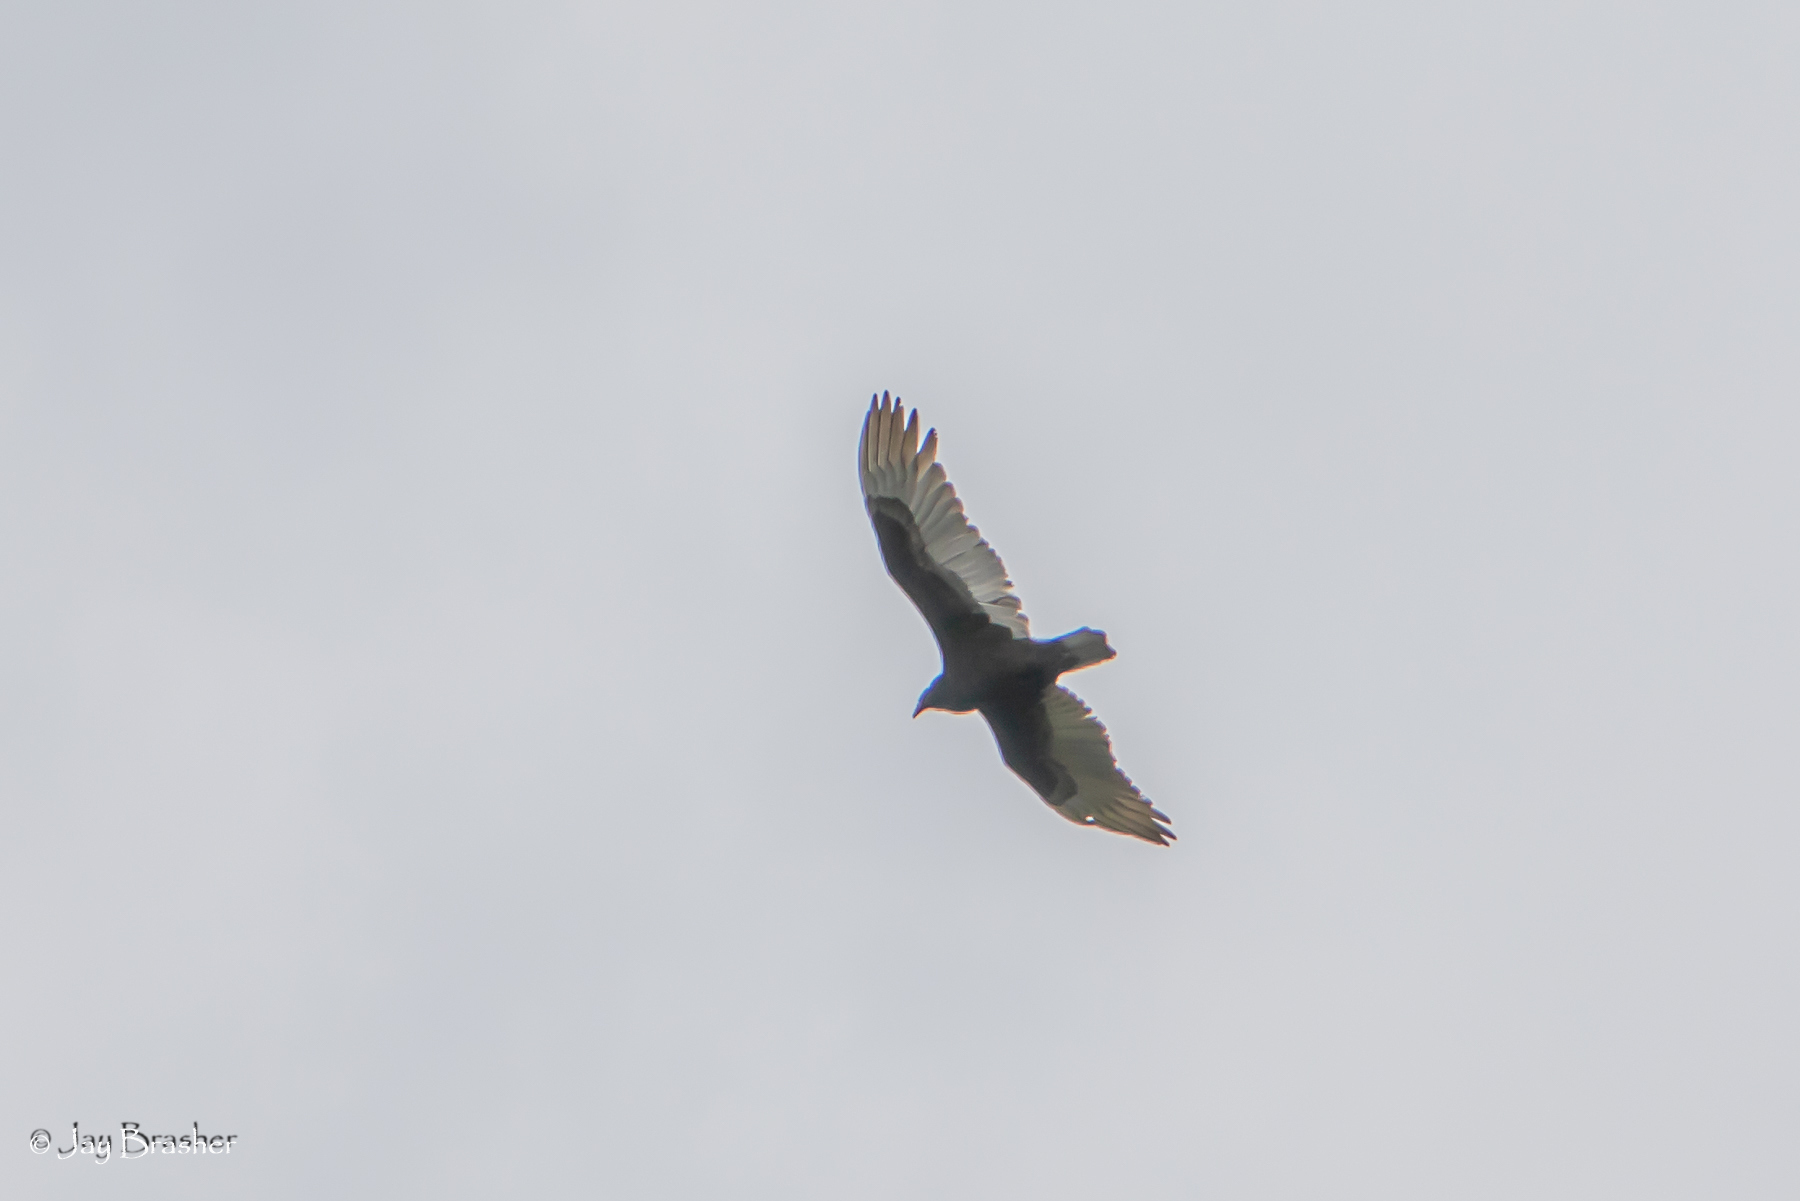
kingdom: Animalia
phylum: Chordata
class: Aves
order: Accipitriformes
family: Cathartidae
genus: Cathartes
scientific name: Cathartes aura
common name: Turkey vulture
